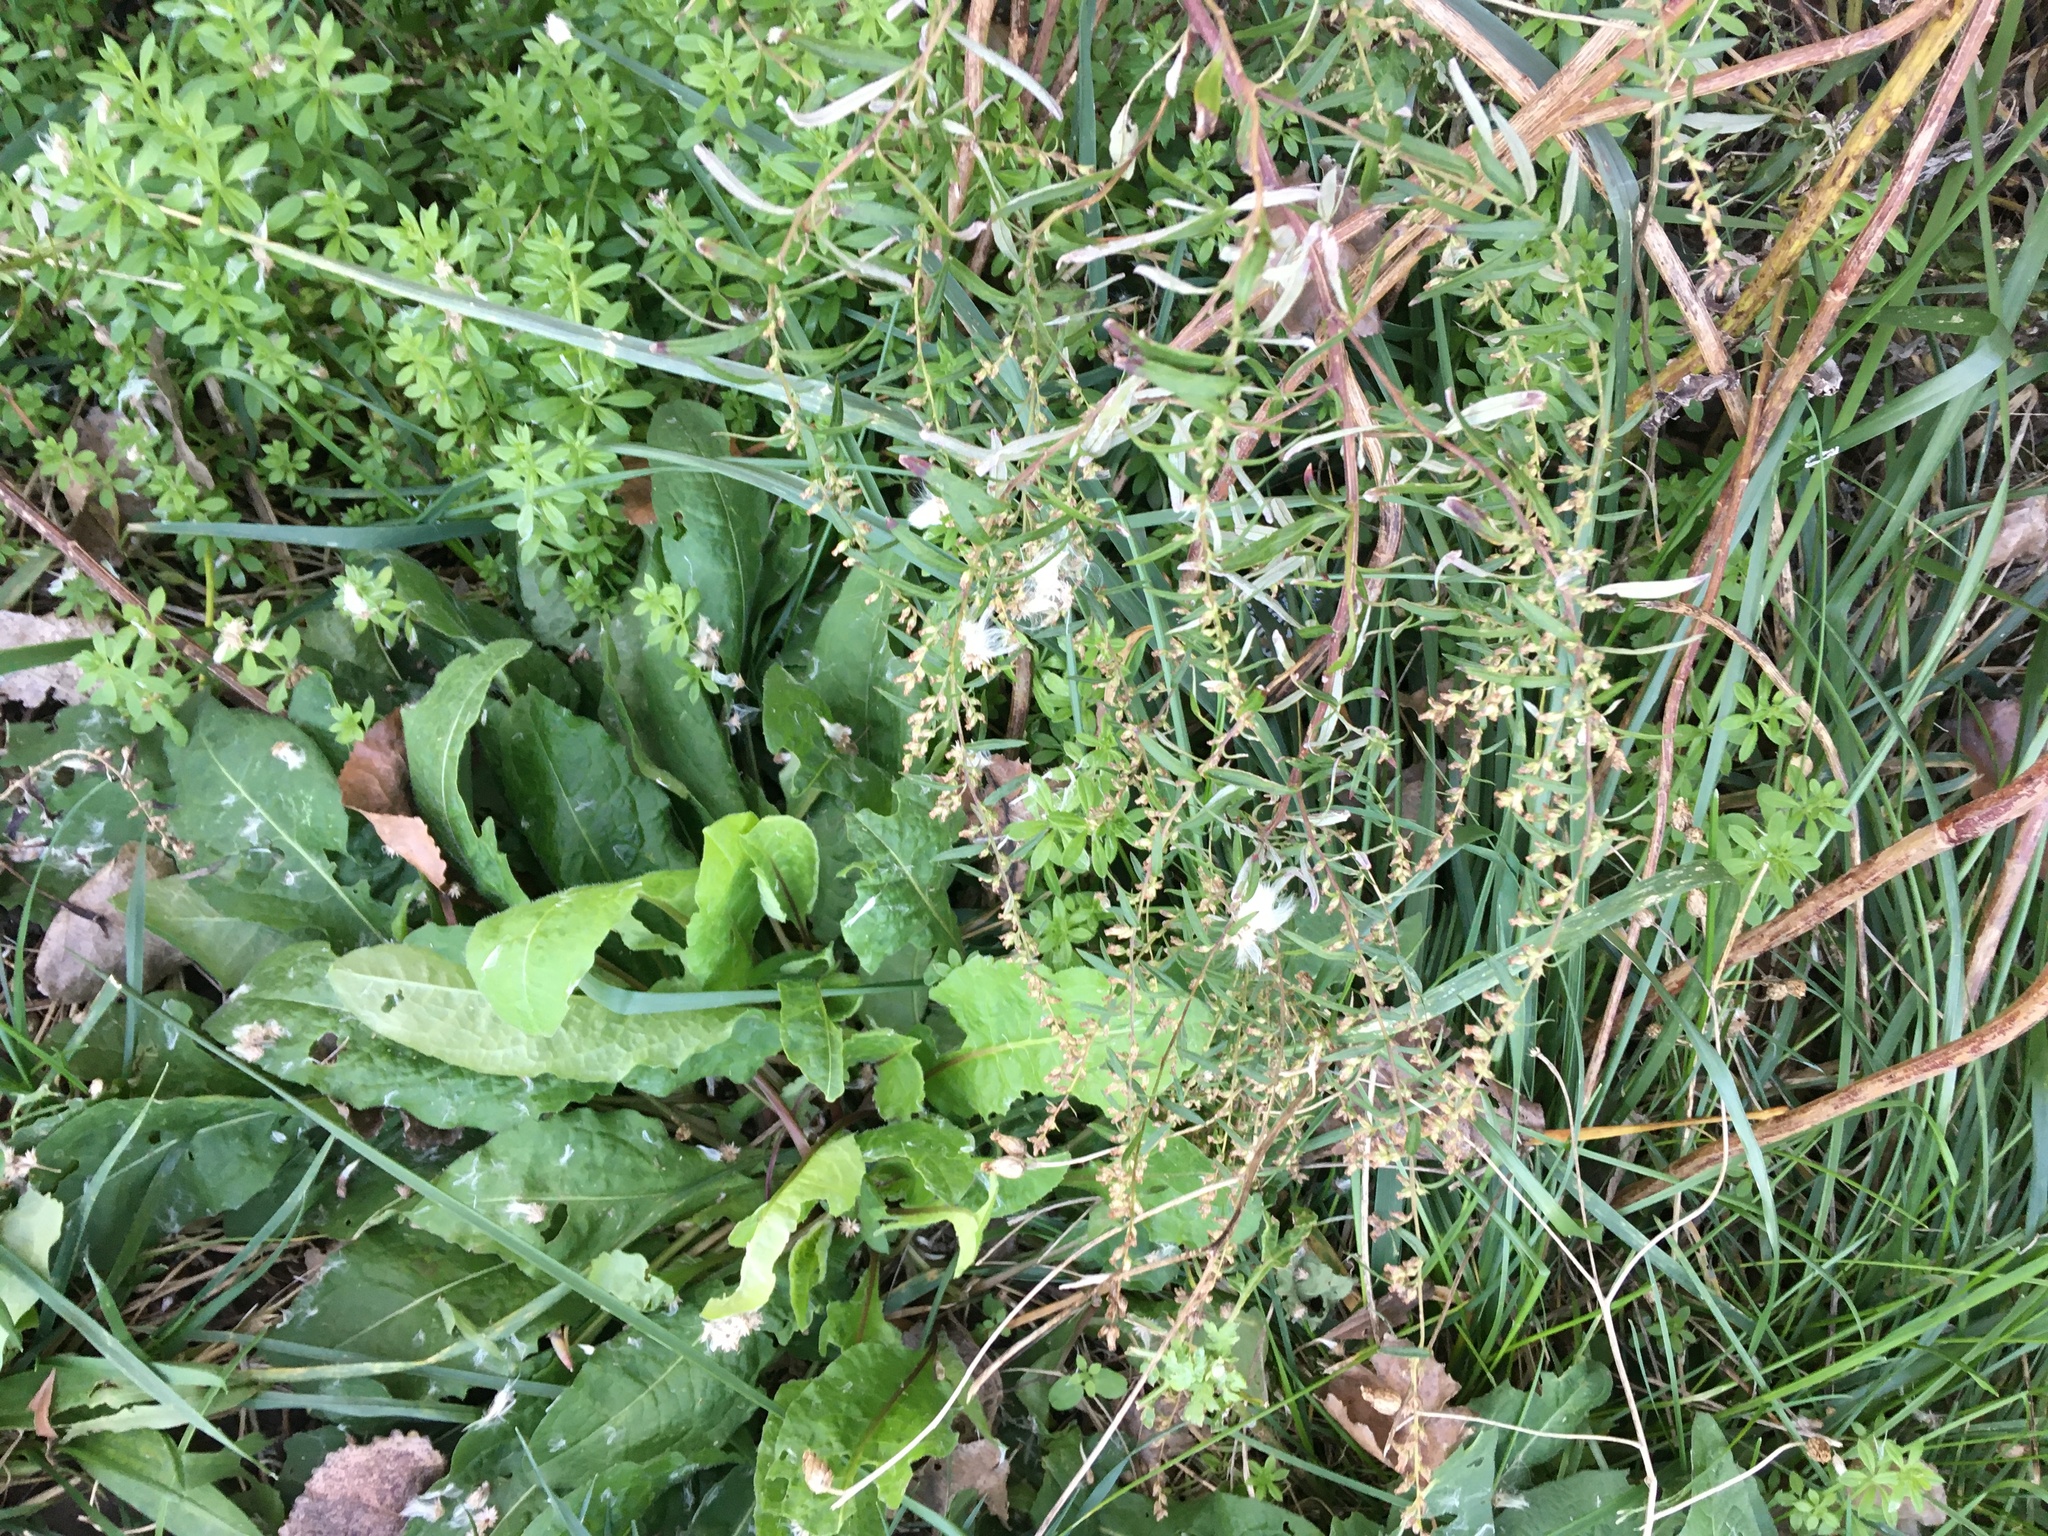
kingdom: Plantae
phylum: Tracheophyta
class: Magnoliopsida
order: Asterales
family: Asteraceae
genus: Artemisia
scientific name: Artemisia vulgaris
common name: Mugwort
